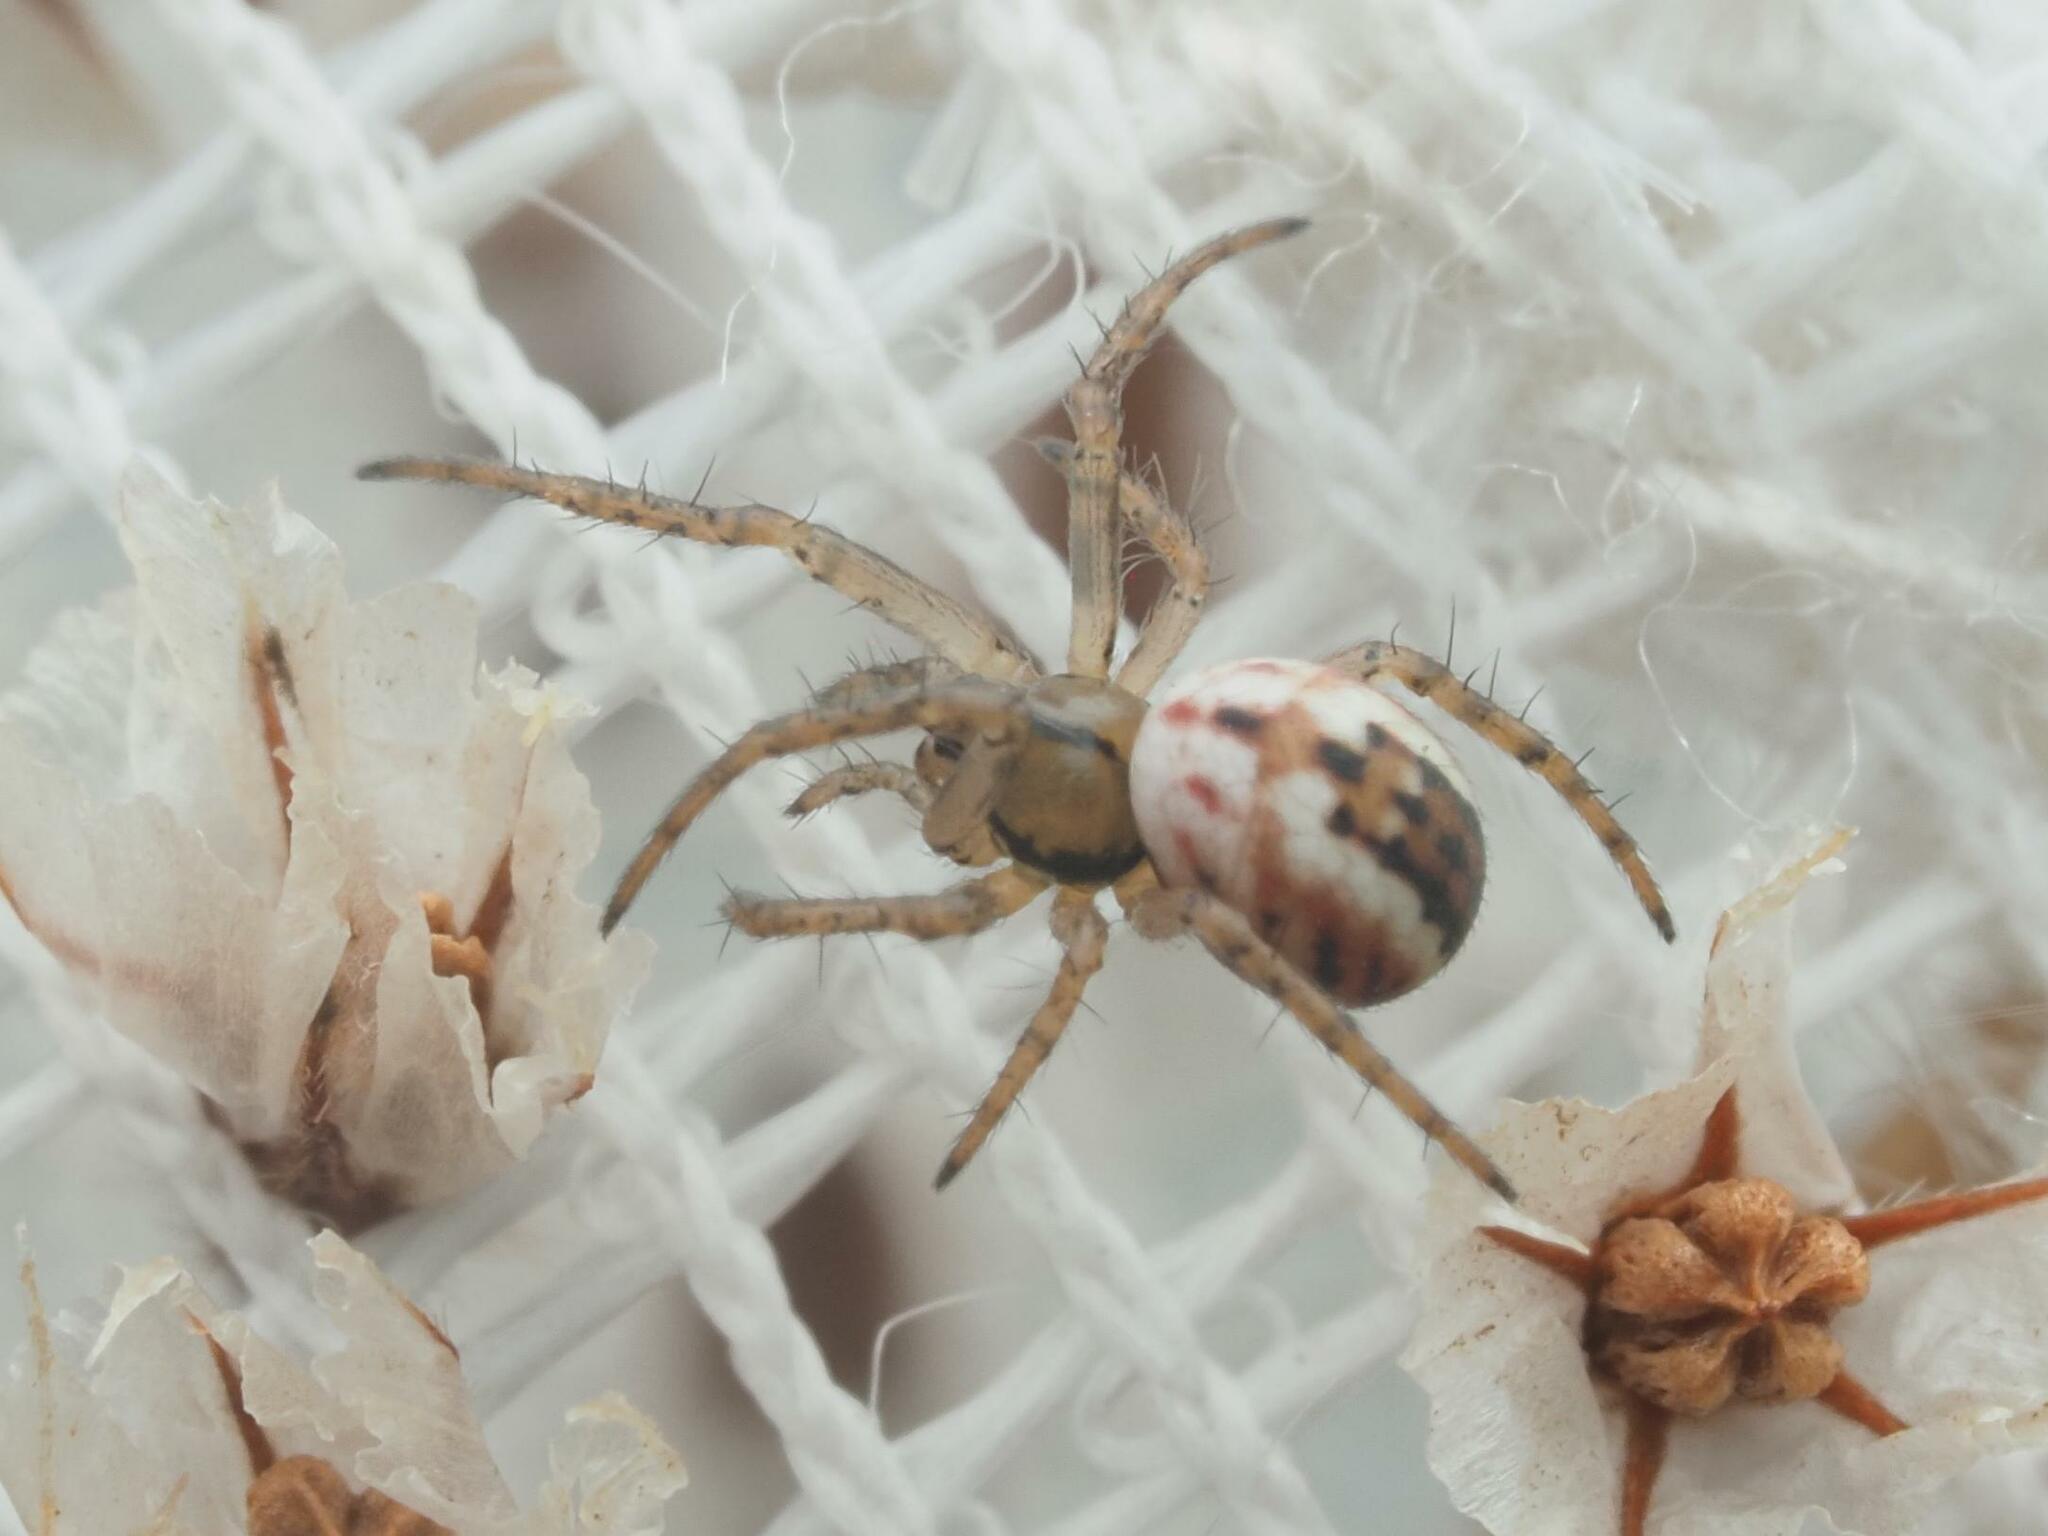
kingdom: Animalia
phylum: Arthropoda
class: Arachnida
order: Araneae
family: Araneidae
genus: Mangora
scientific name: Mangora acalypha
